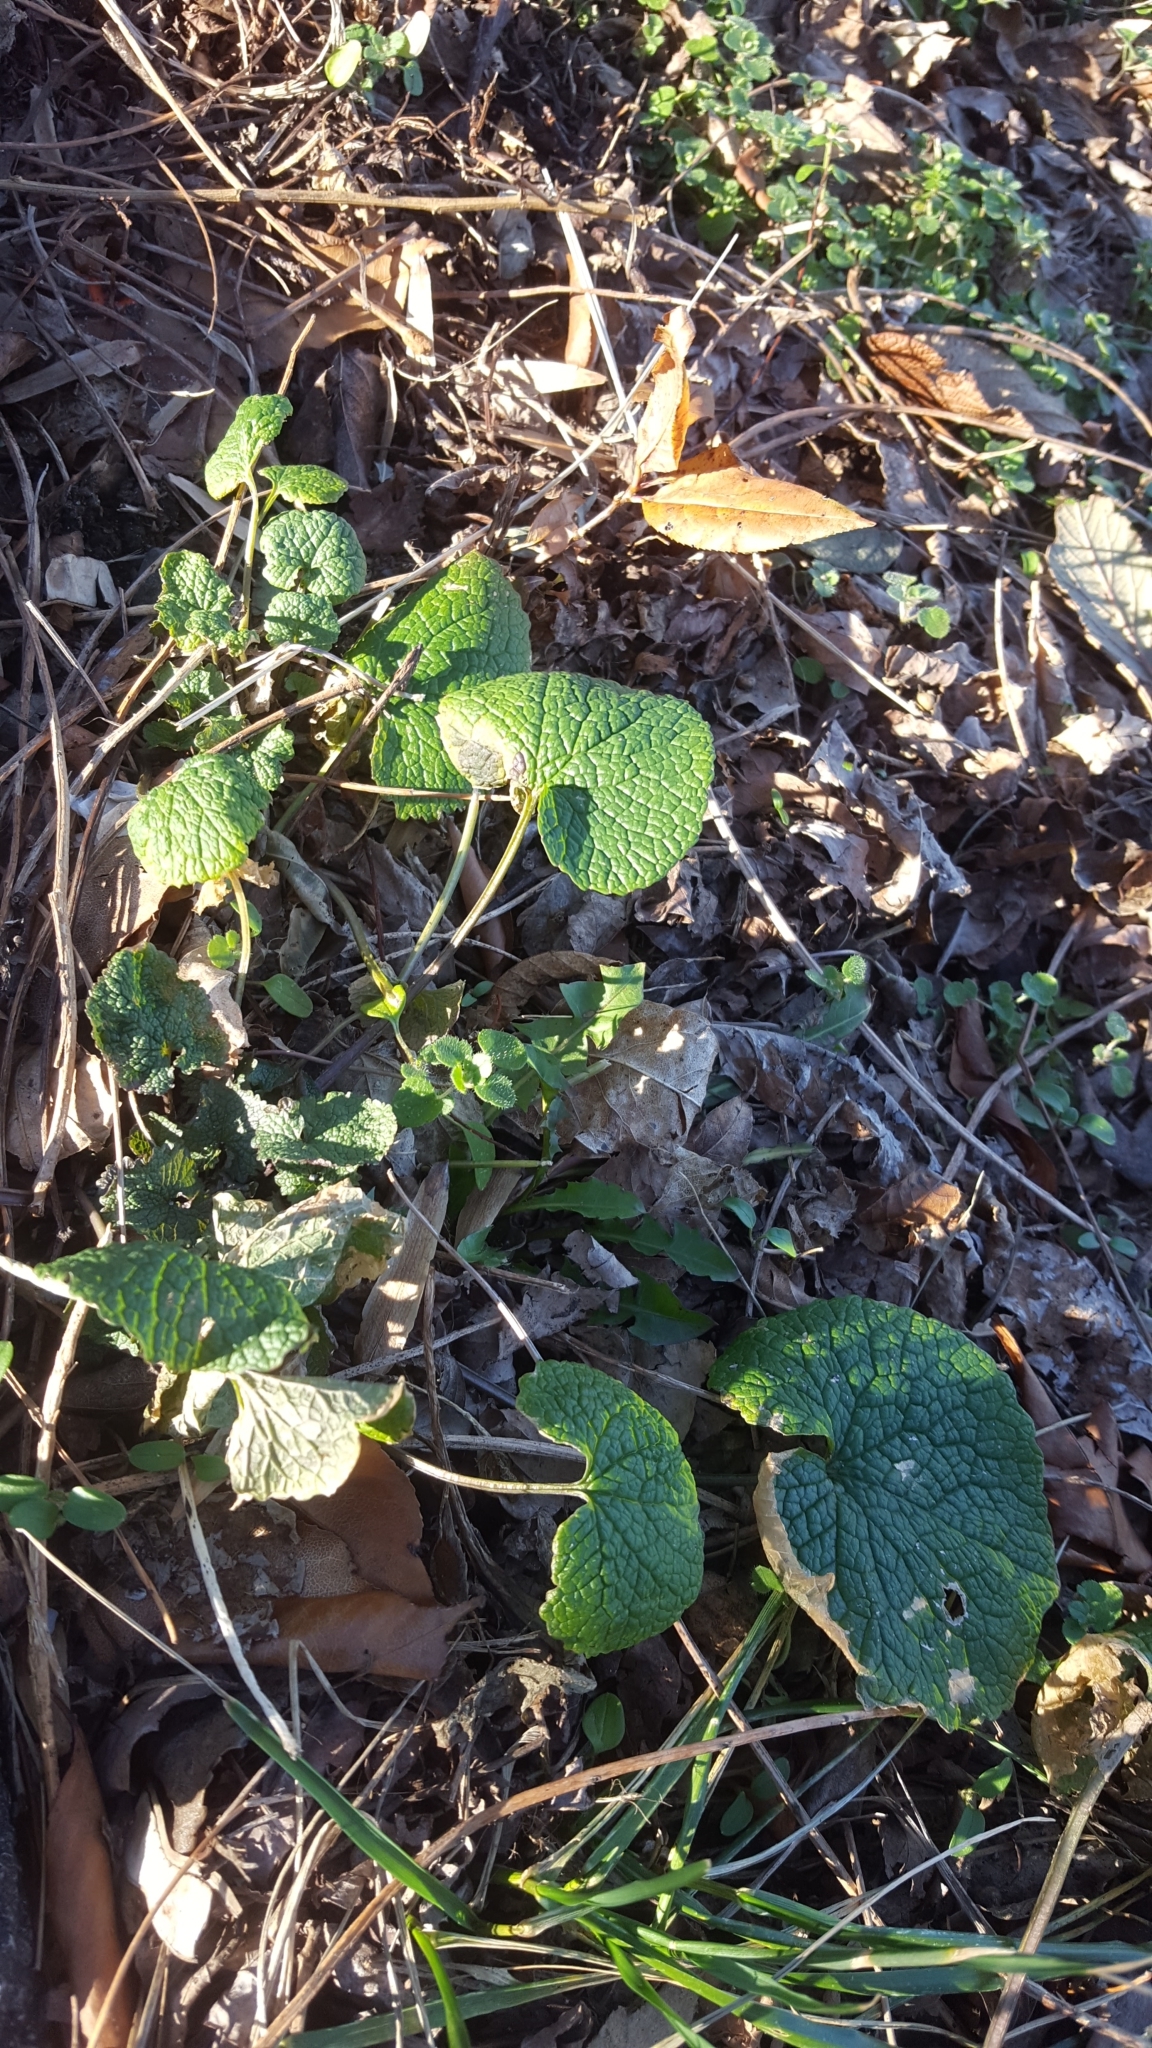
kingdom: Plantae
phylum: Tracheophyta
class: Magnoliopsida
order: Brassicales
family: Brassicaceae
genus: Alliaria
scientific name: Alliaria petiolata
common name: Garlic mustard
